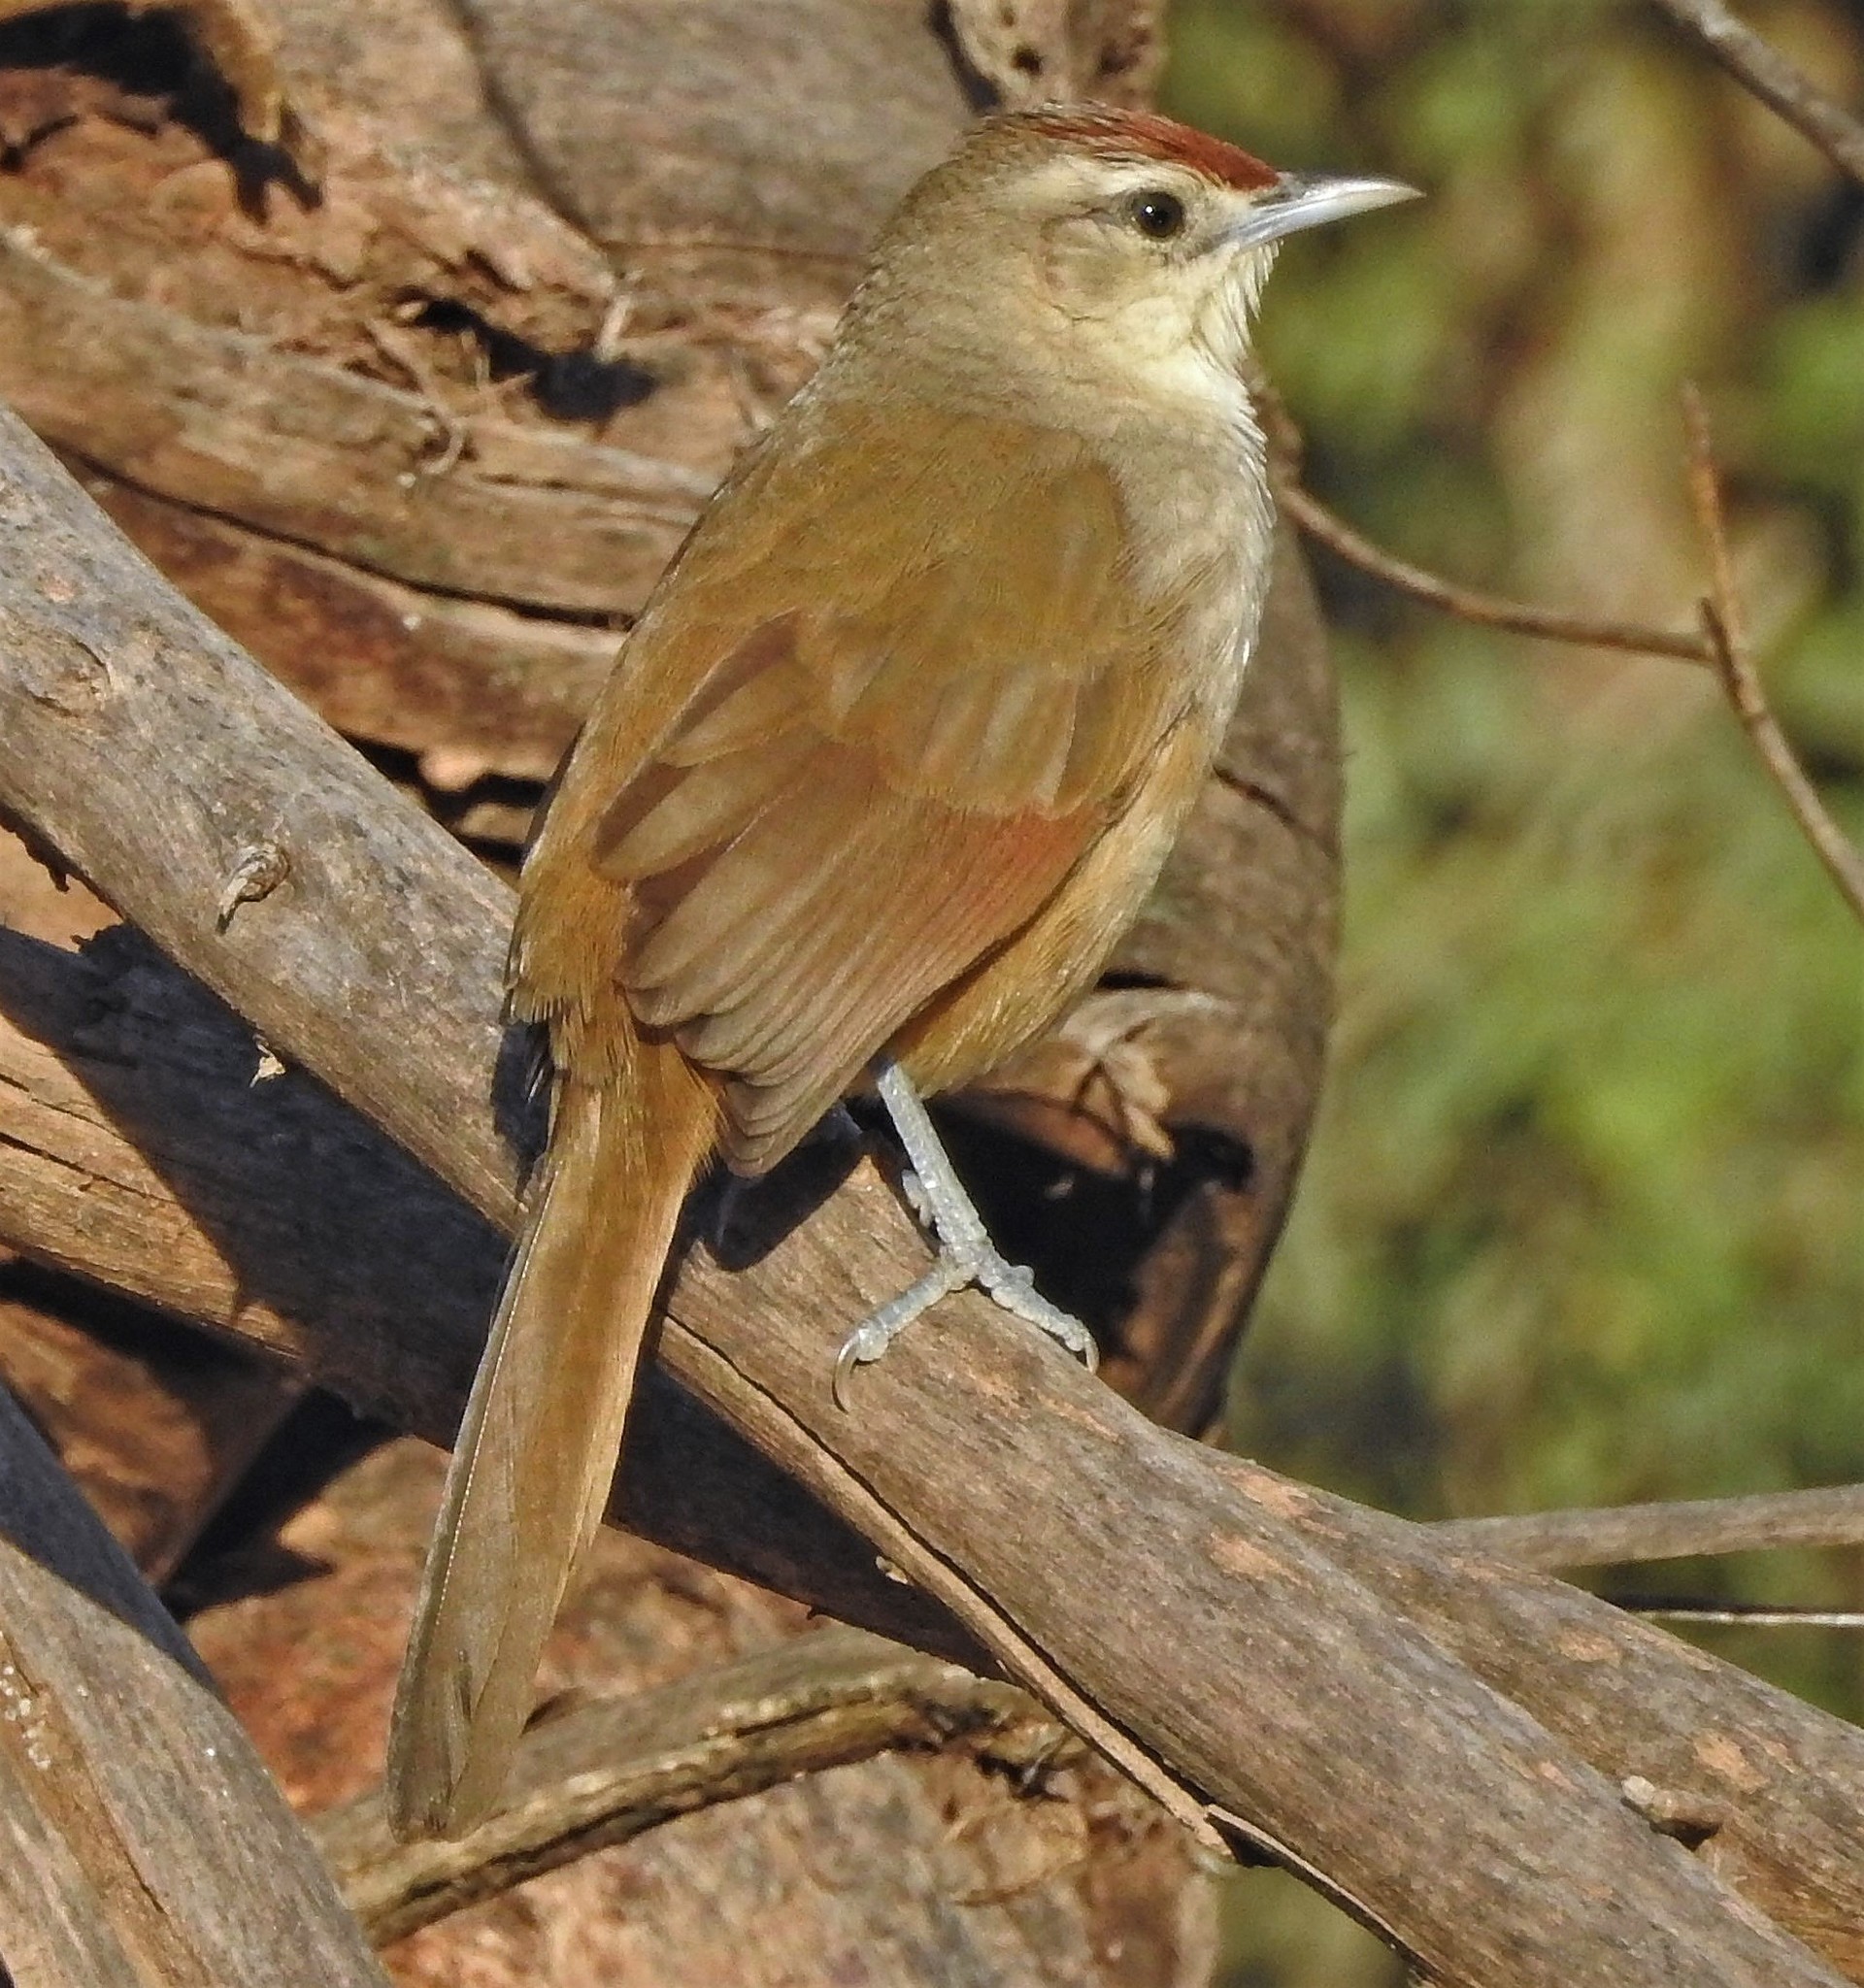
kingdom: Animalia
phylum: Chordata
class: Aves
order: Passeriformes
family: Furnariidae
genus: Phacellodomus
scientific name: Phacellodomus rufifrons
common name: Rufous-fronted thornbird
